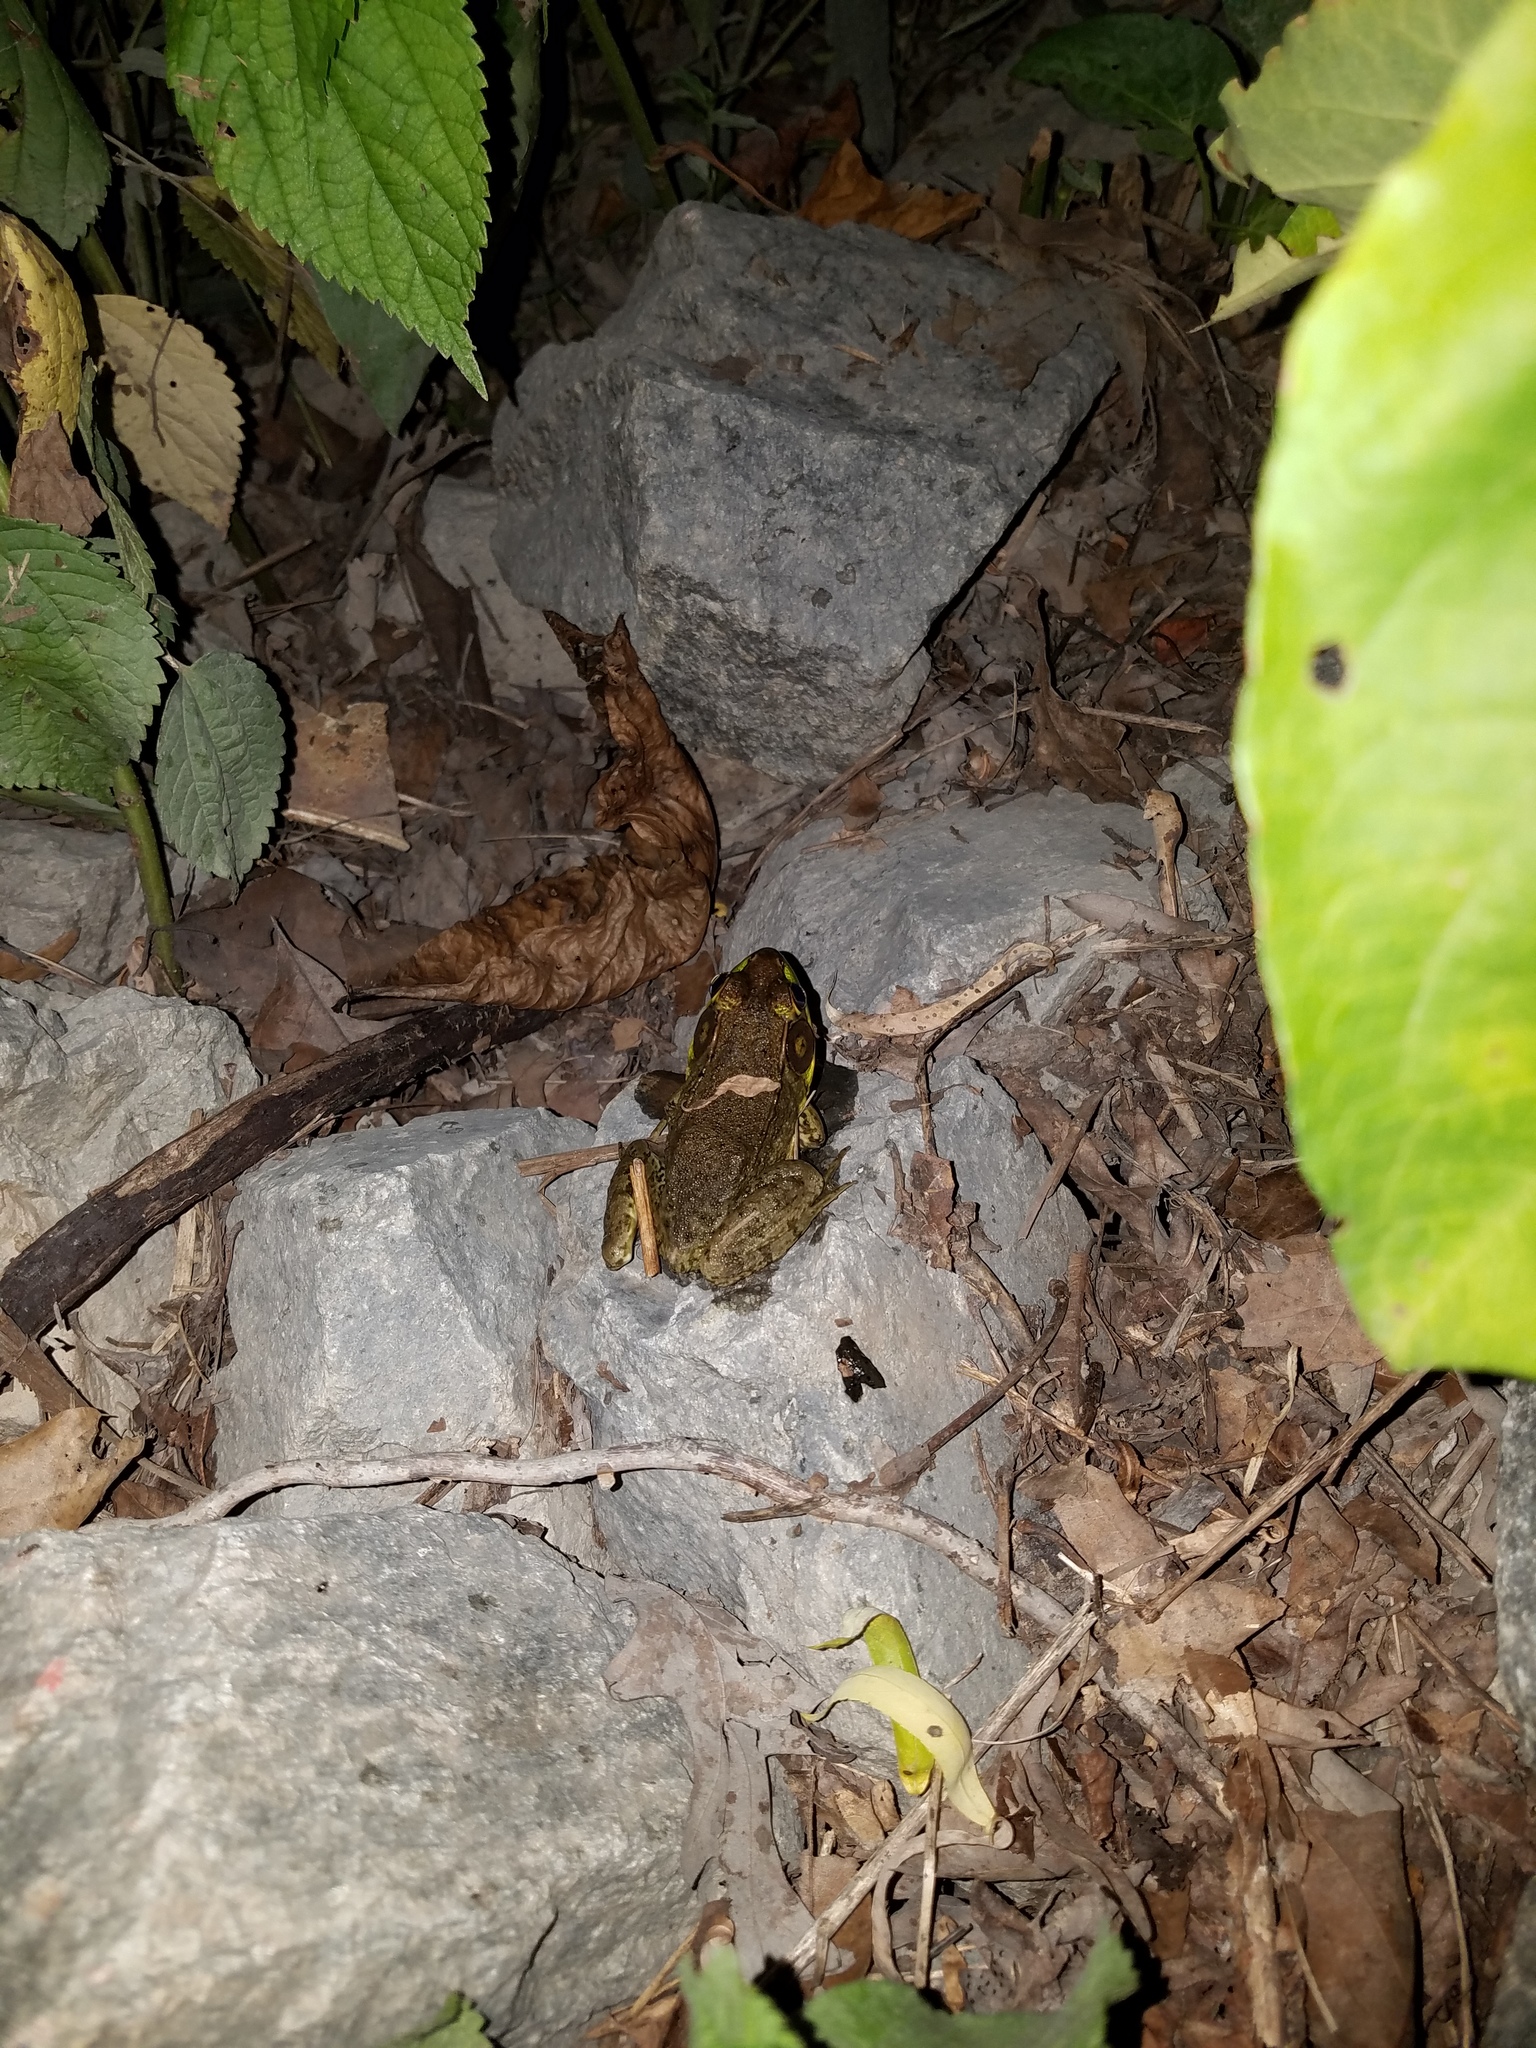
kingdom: Animalia
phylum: Chordata
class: Amphibia
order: Anura
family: Ranidae
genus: Lithobates
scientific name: Lithobates clamitans
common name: Green frog
